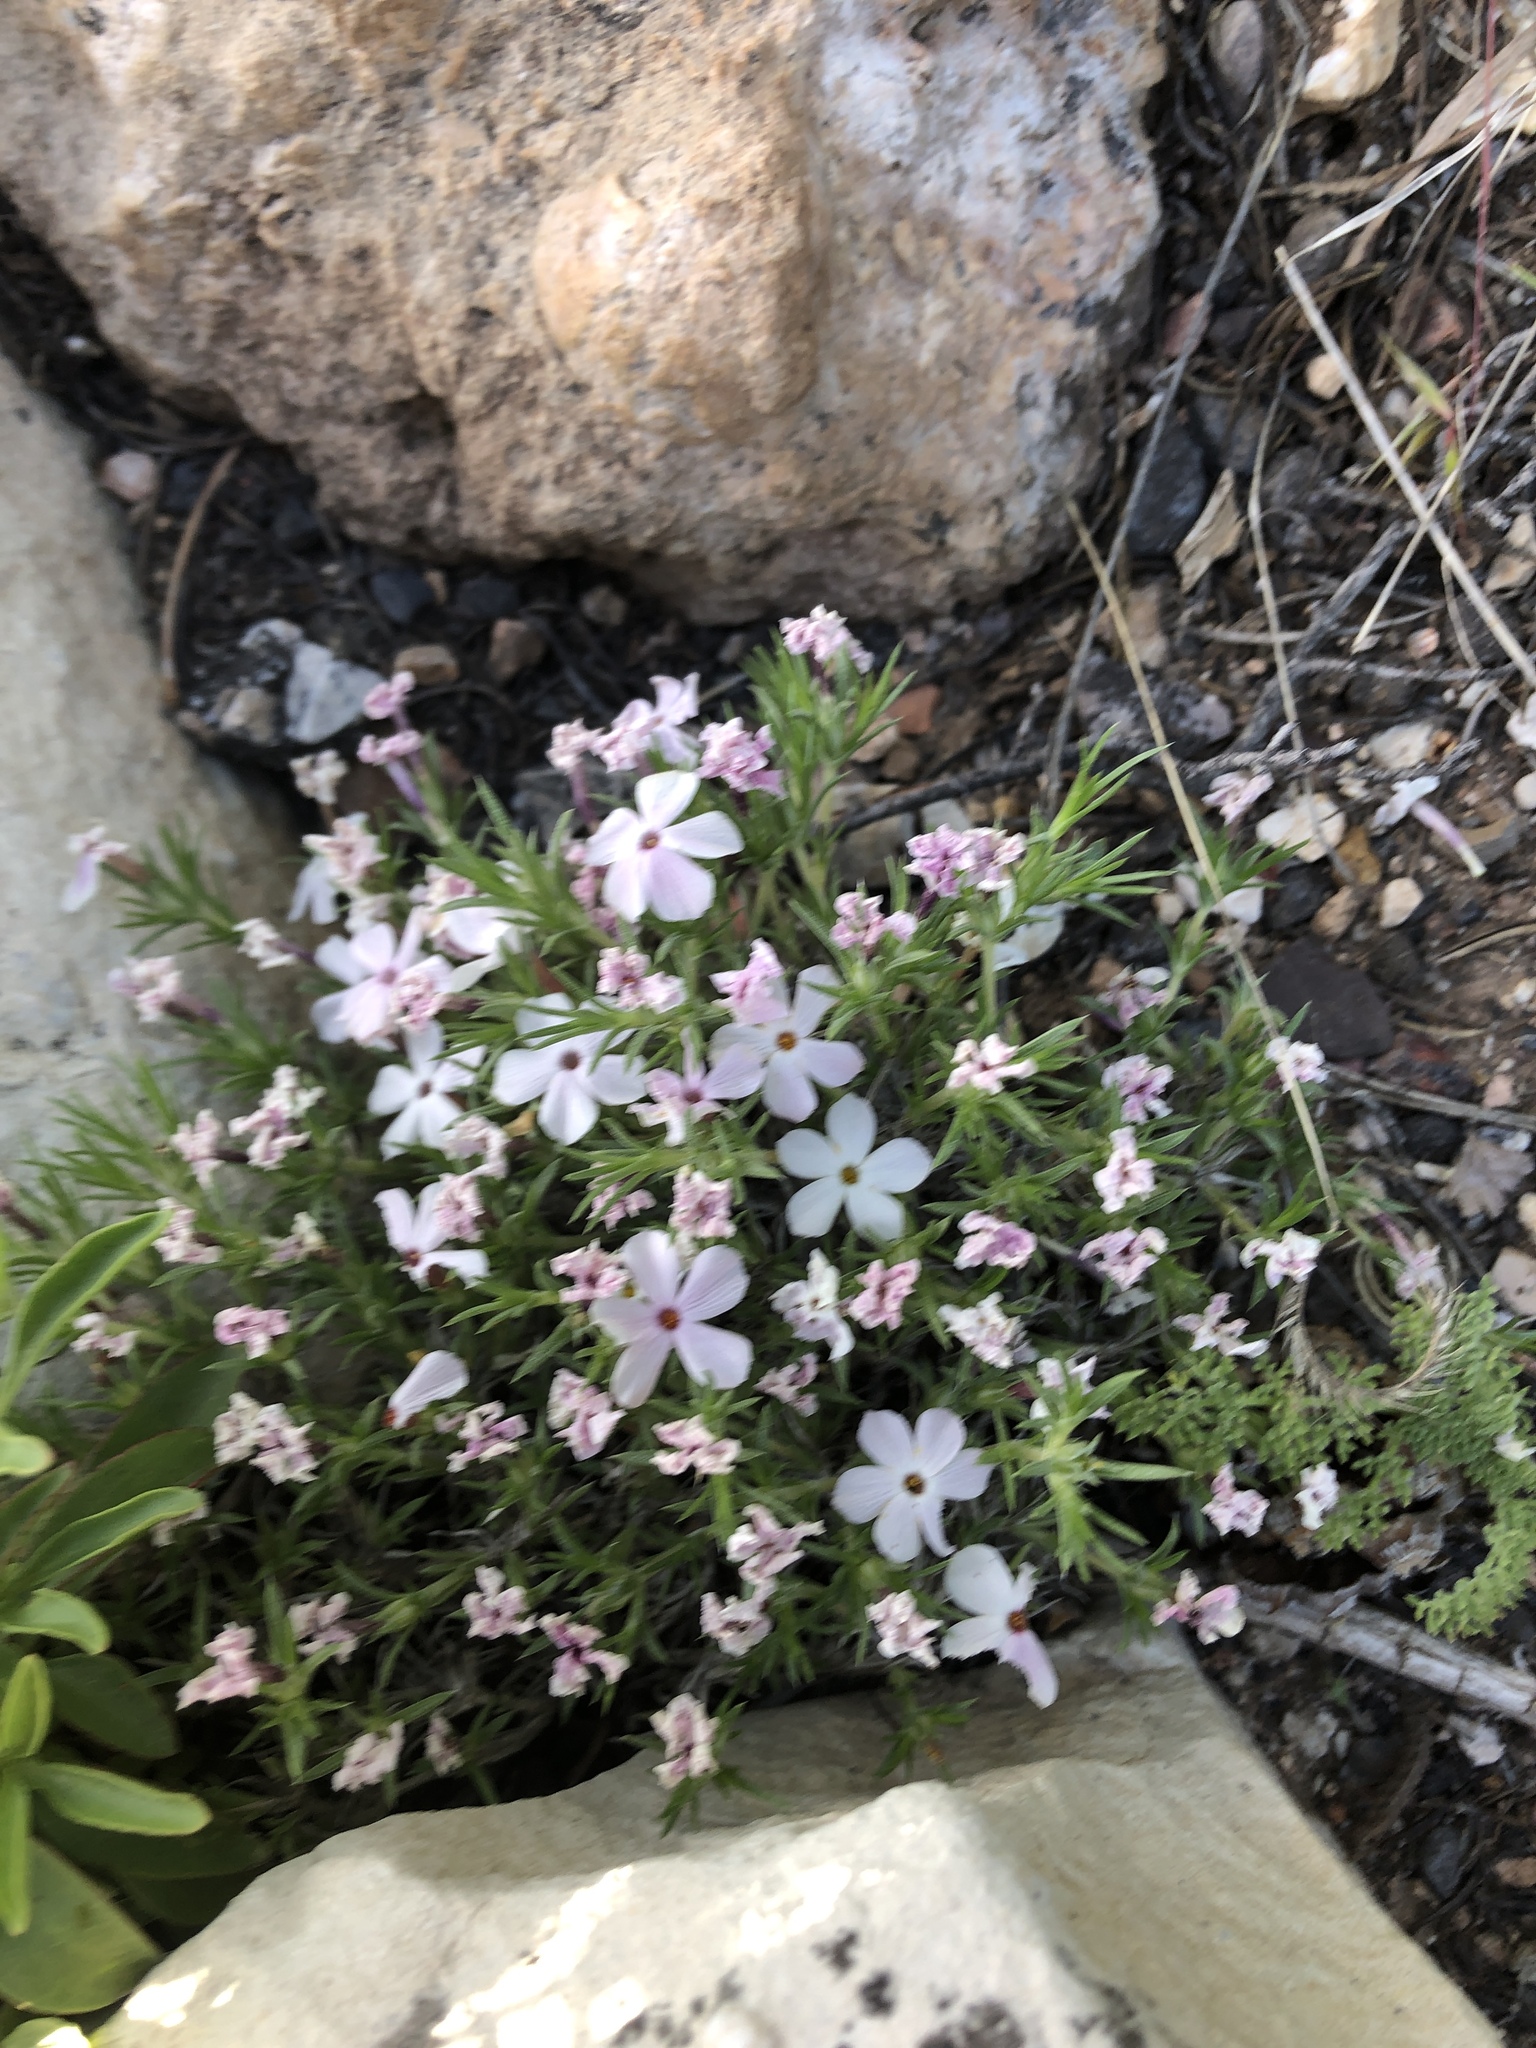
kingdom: Plantae
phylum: Tracheophyta
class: Magnoliopsida
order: Ericales
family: Polemoniaceae
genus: Phlox
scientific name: Phlox austromontana
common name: Desert phlox
